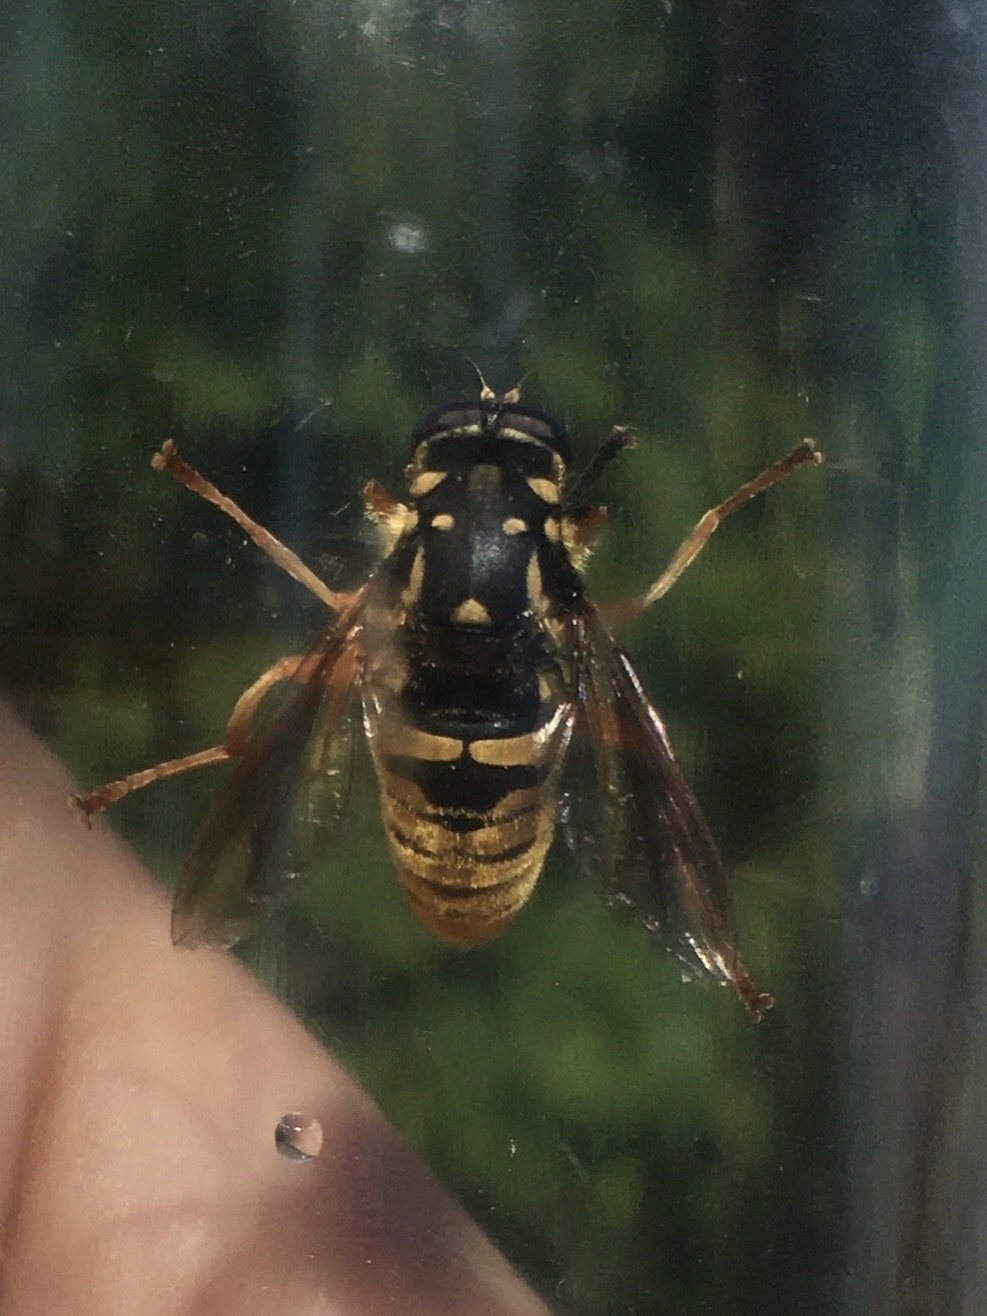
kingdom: Animalia
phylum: Arthropoda
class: Insecta
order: Diptera
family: Syrphidae
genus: Temnostoma
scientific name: Temnostoma alternans
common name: Wasp-like falsehorn
